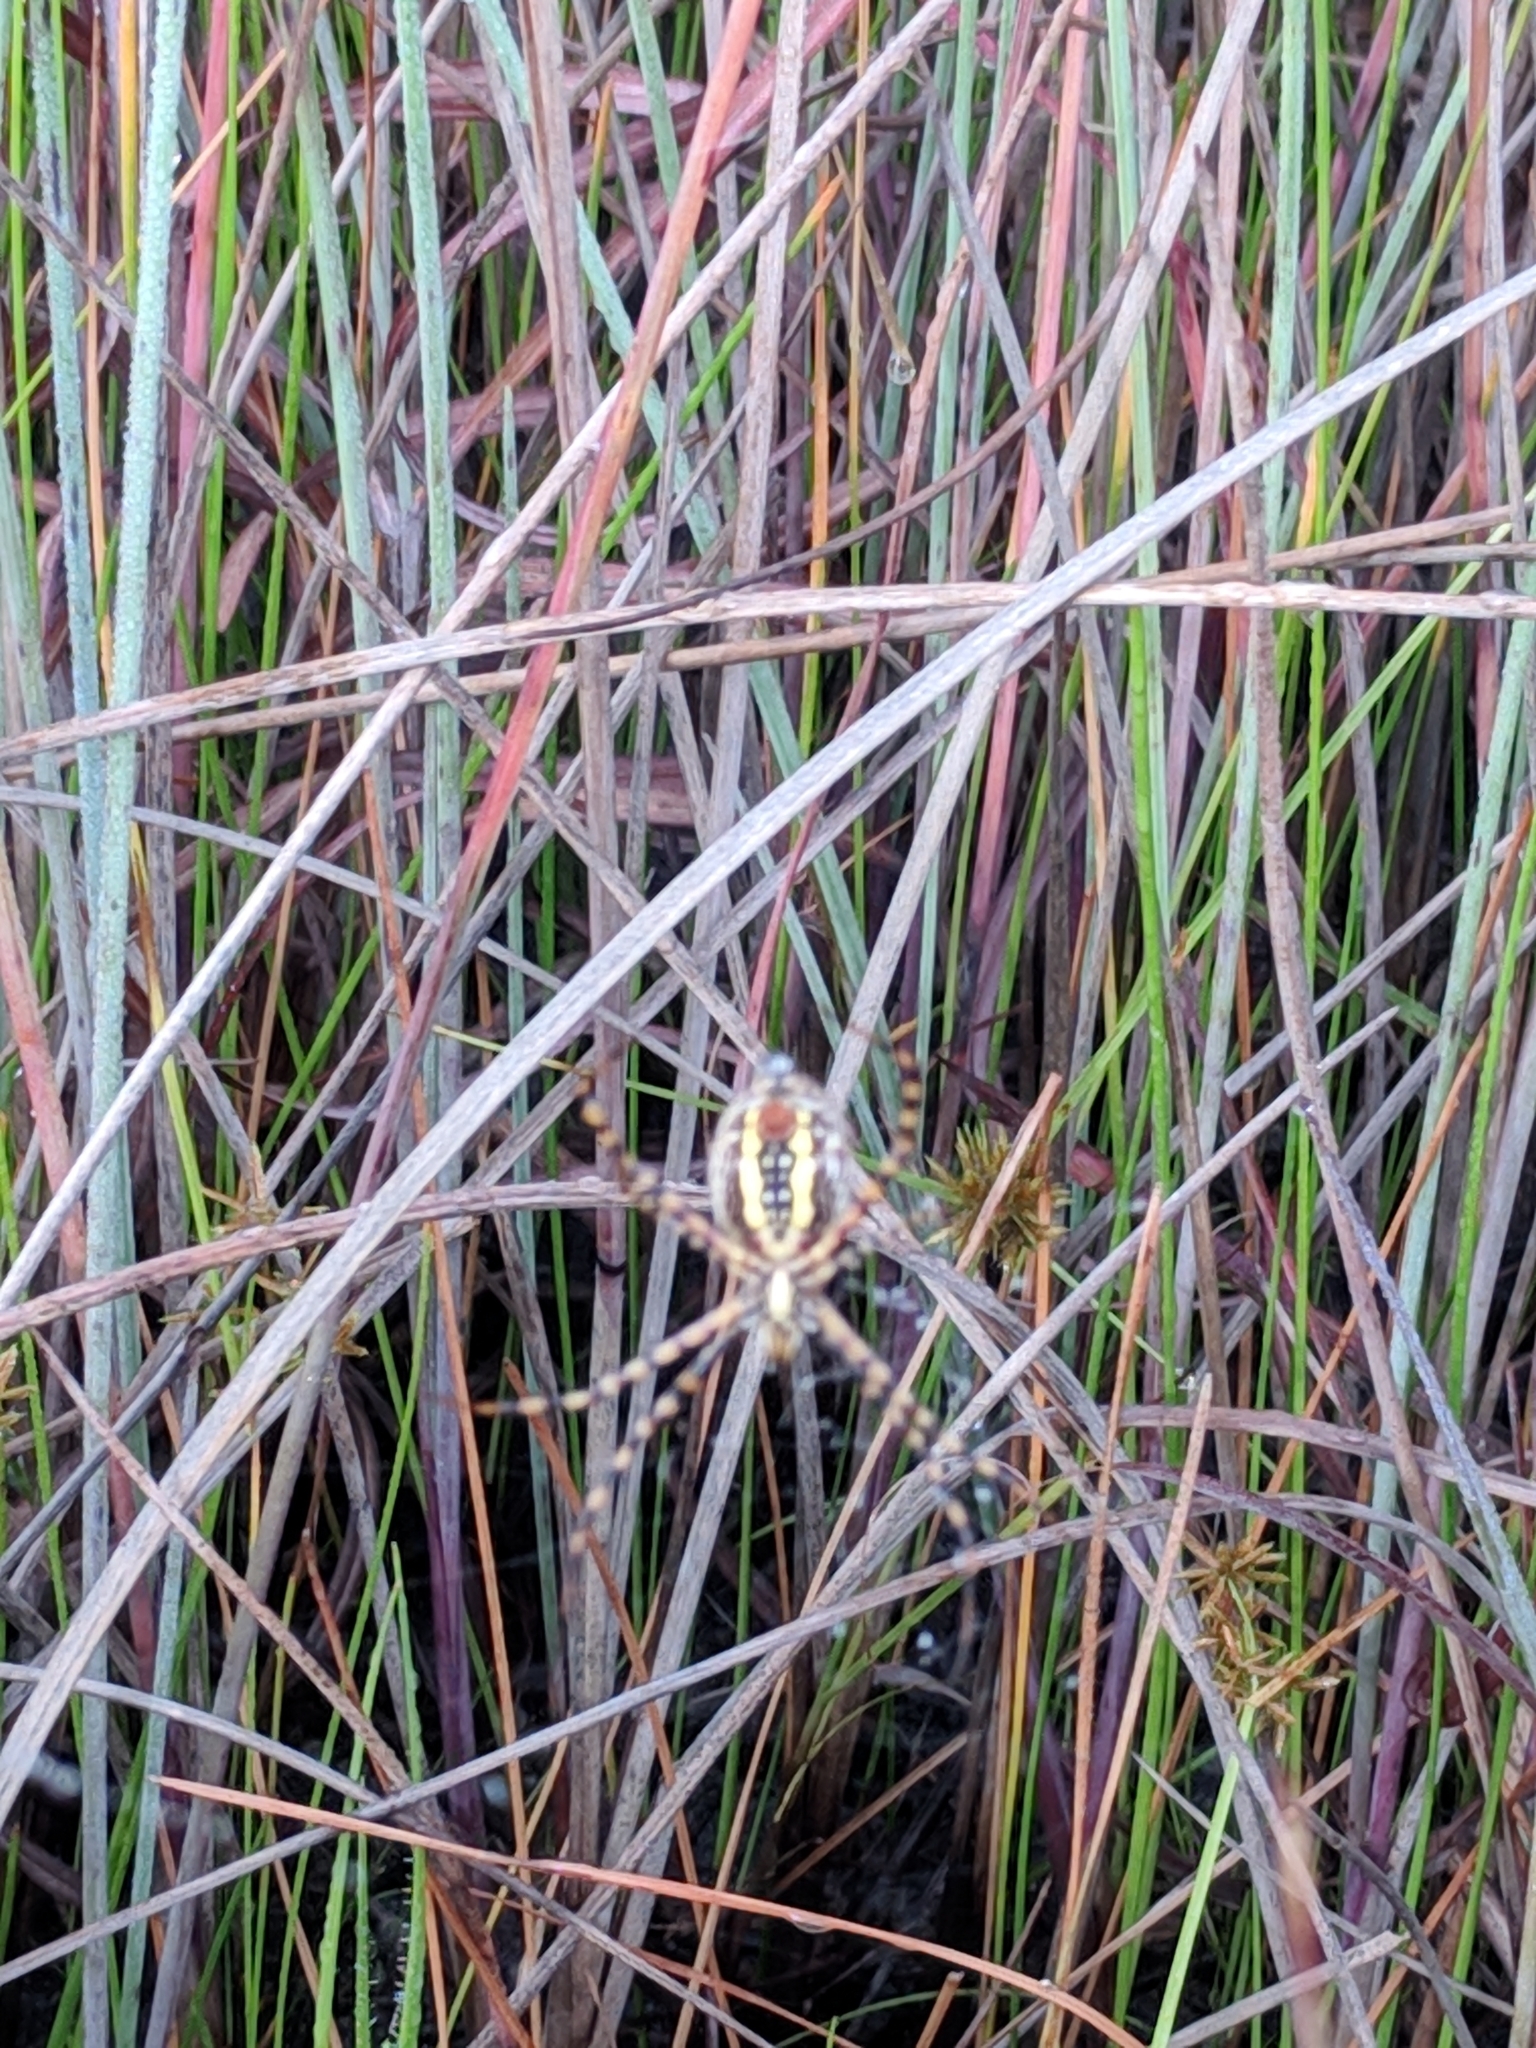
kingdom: Animalia
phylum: Arthropoda
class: Arachnida
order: Araneae
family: Araneidae
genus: Argiope
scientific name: Argiope trifasciata
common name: Banded garden spider
